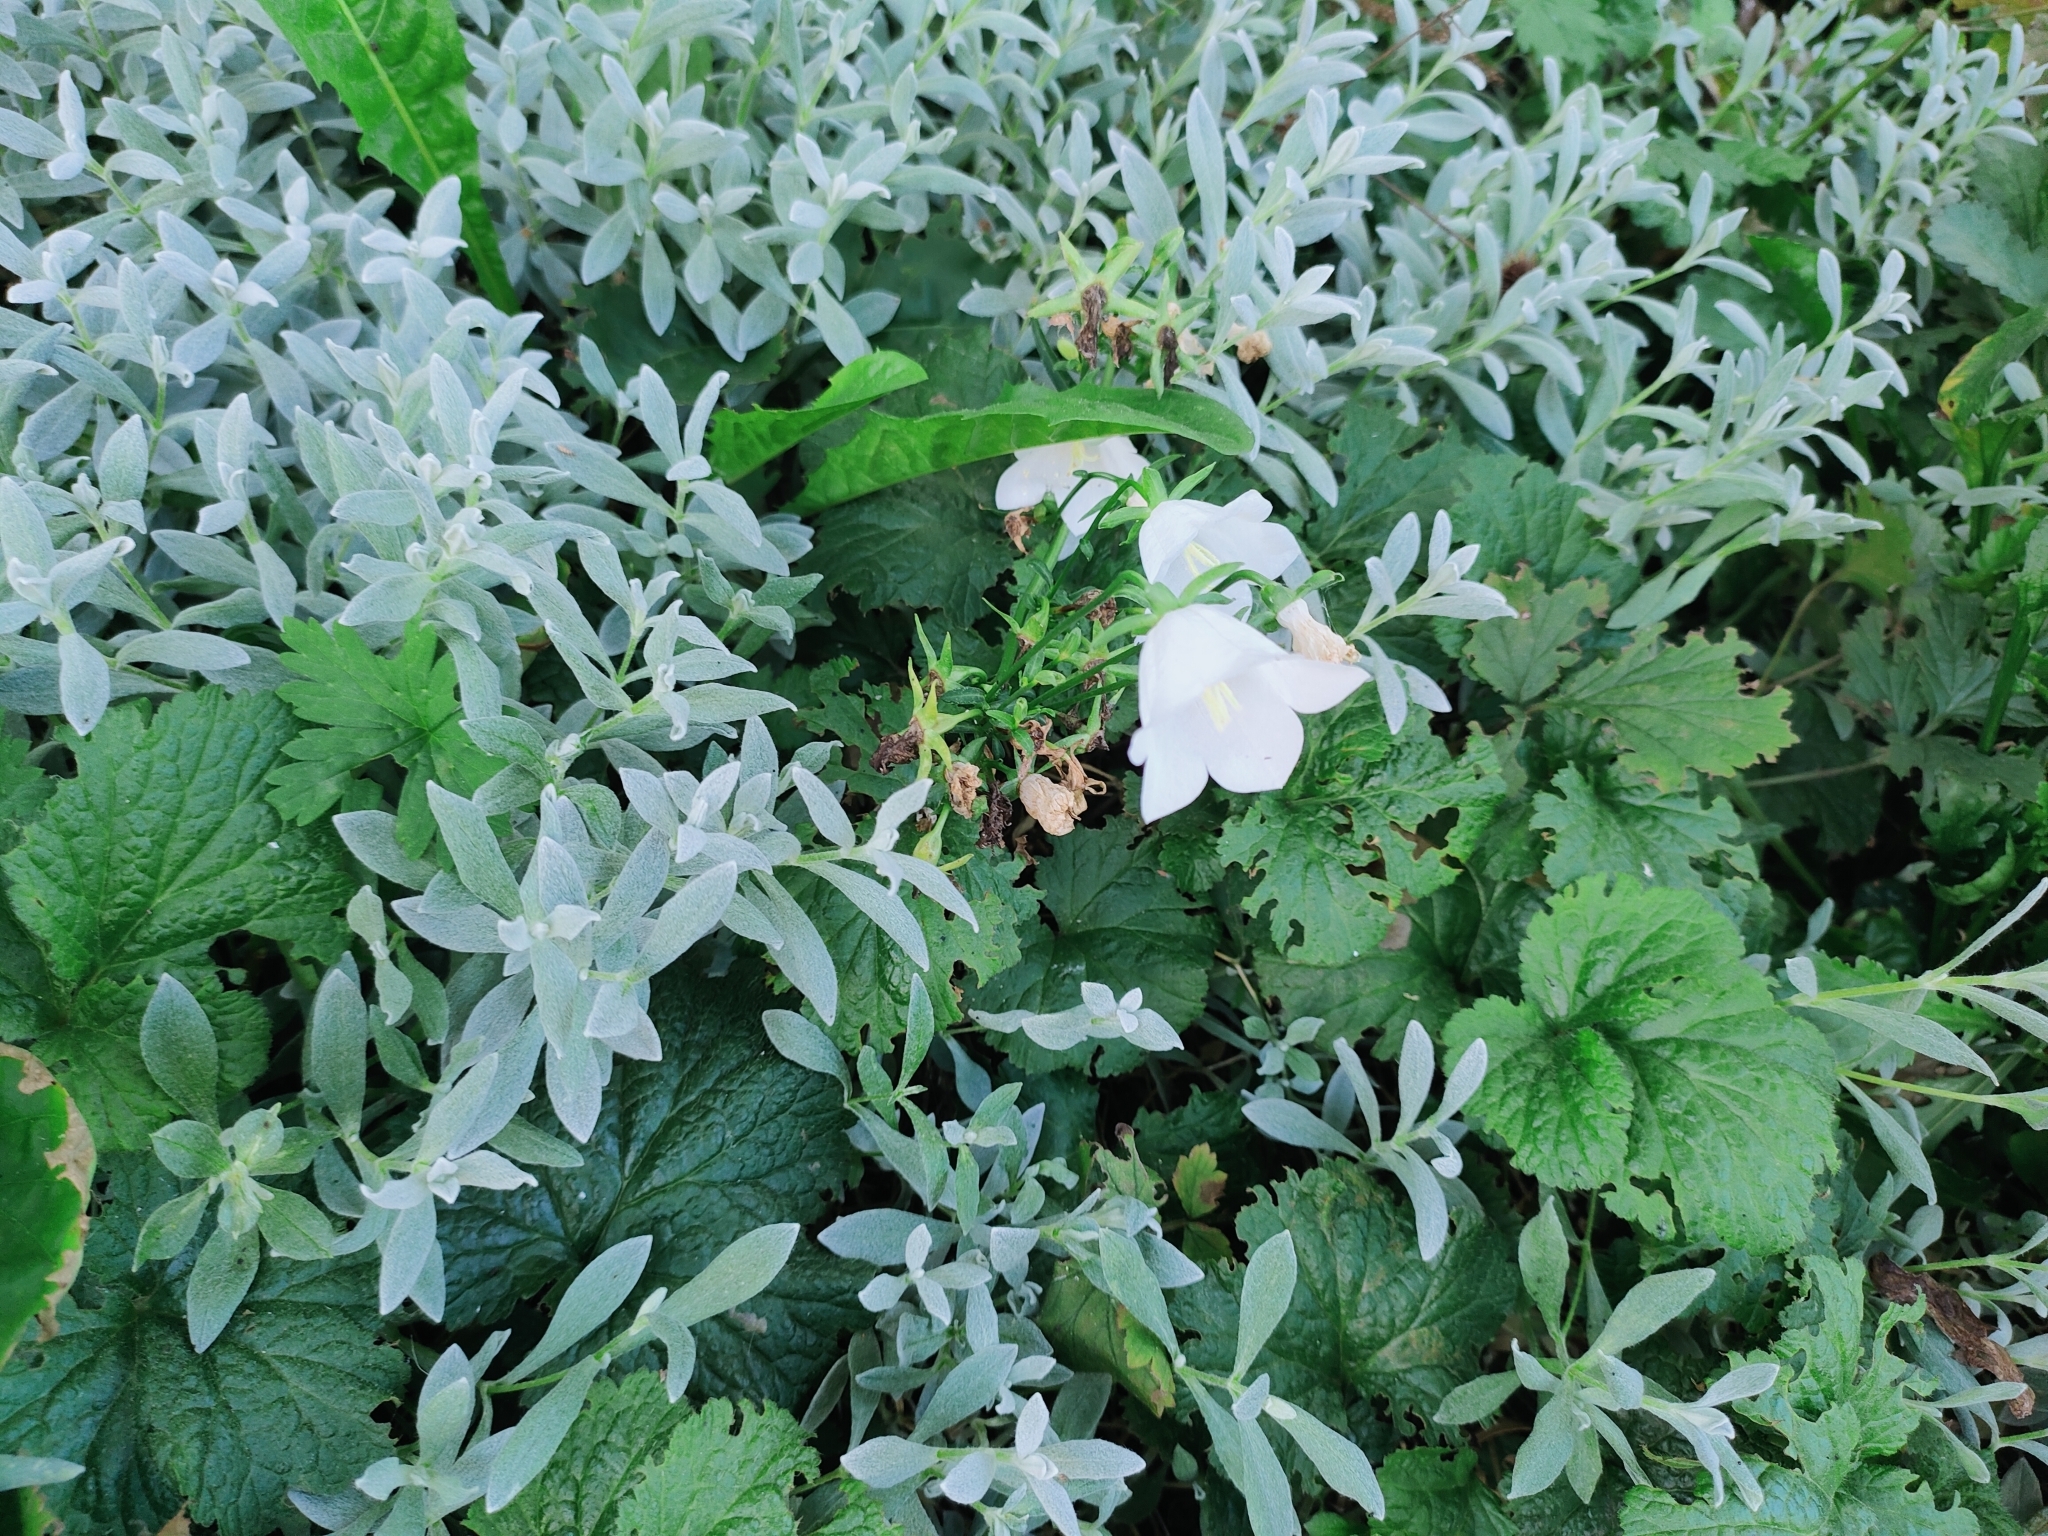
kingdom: Plantae
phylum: Tracheophyta
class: Magnoliopsida
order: Asterales
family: Campanulaceae
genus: Campanula
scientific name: Campanula persicifolia
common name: Peach-leaved bellflower
